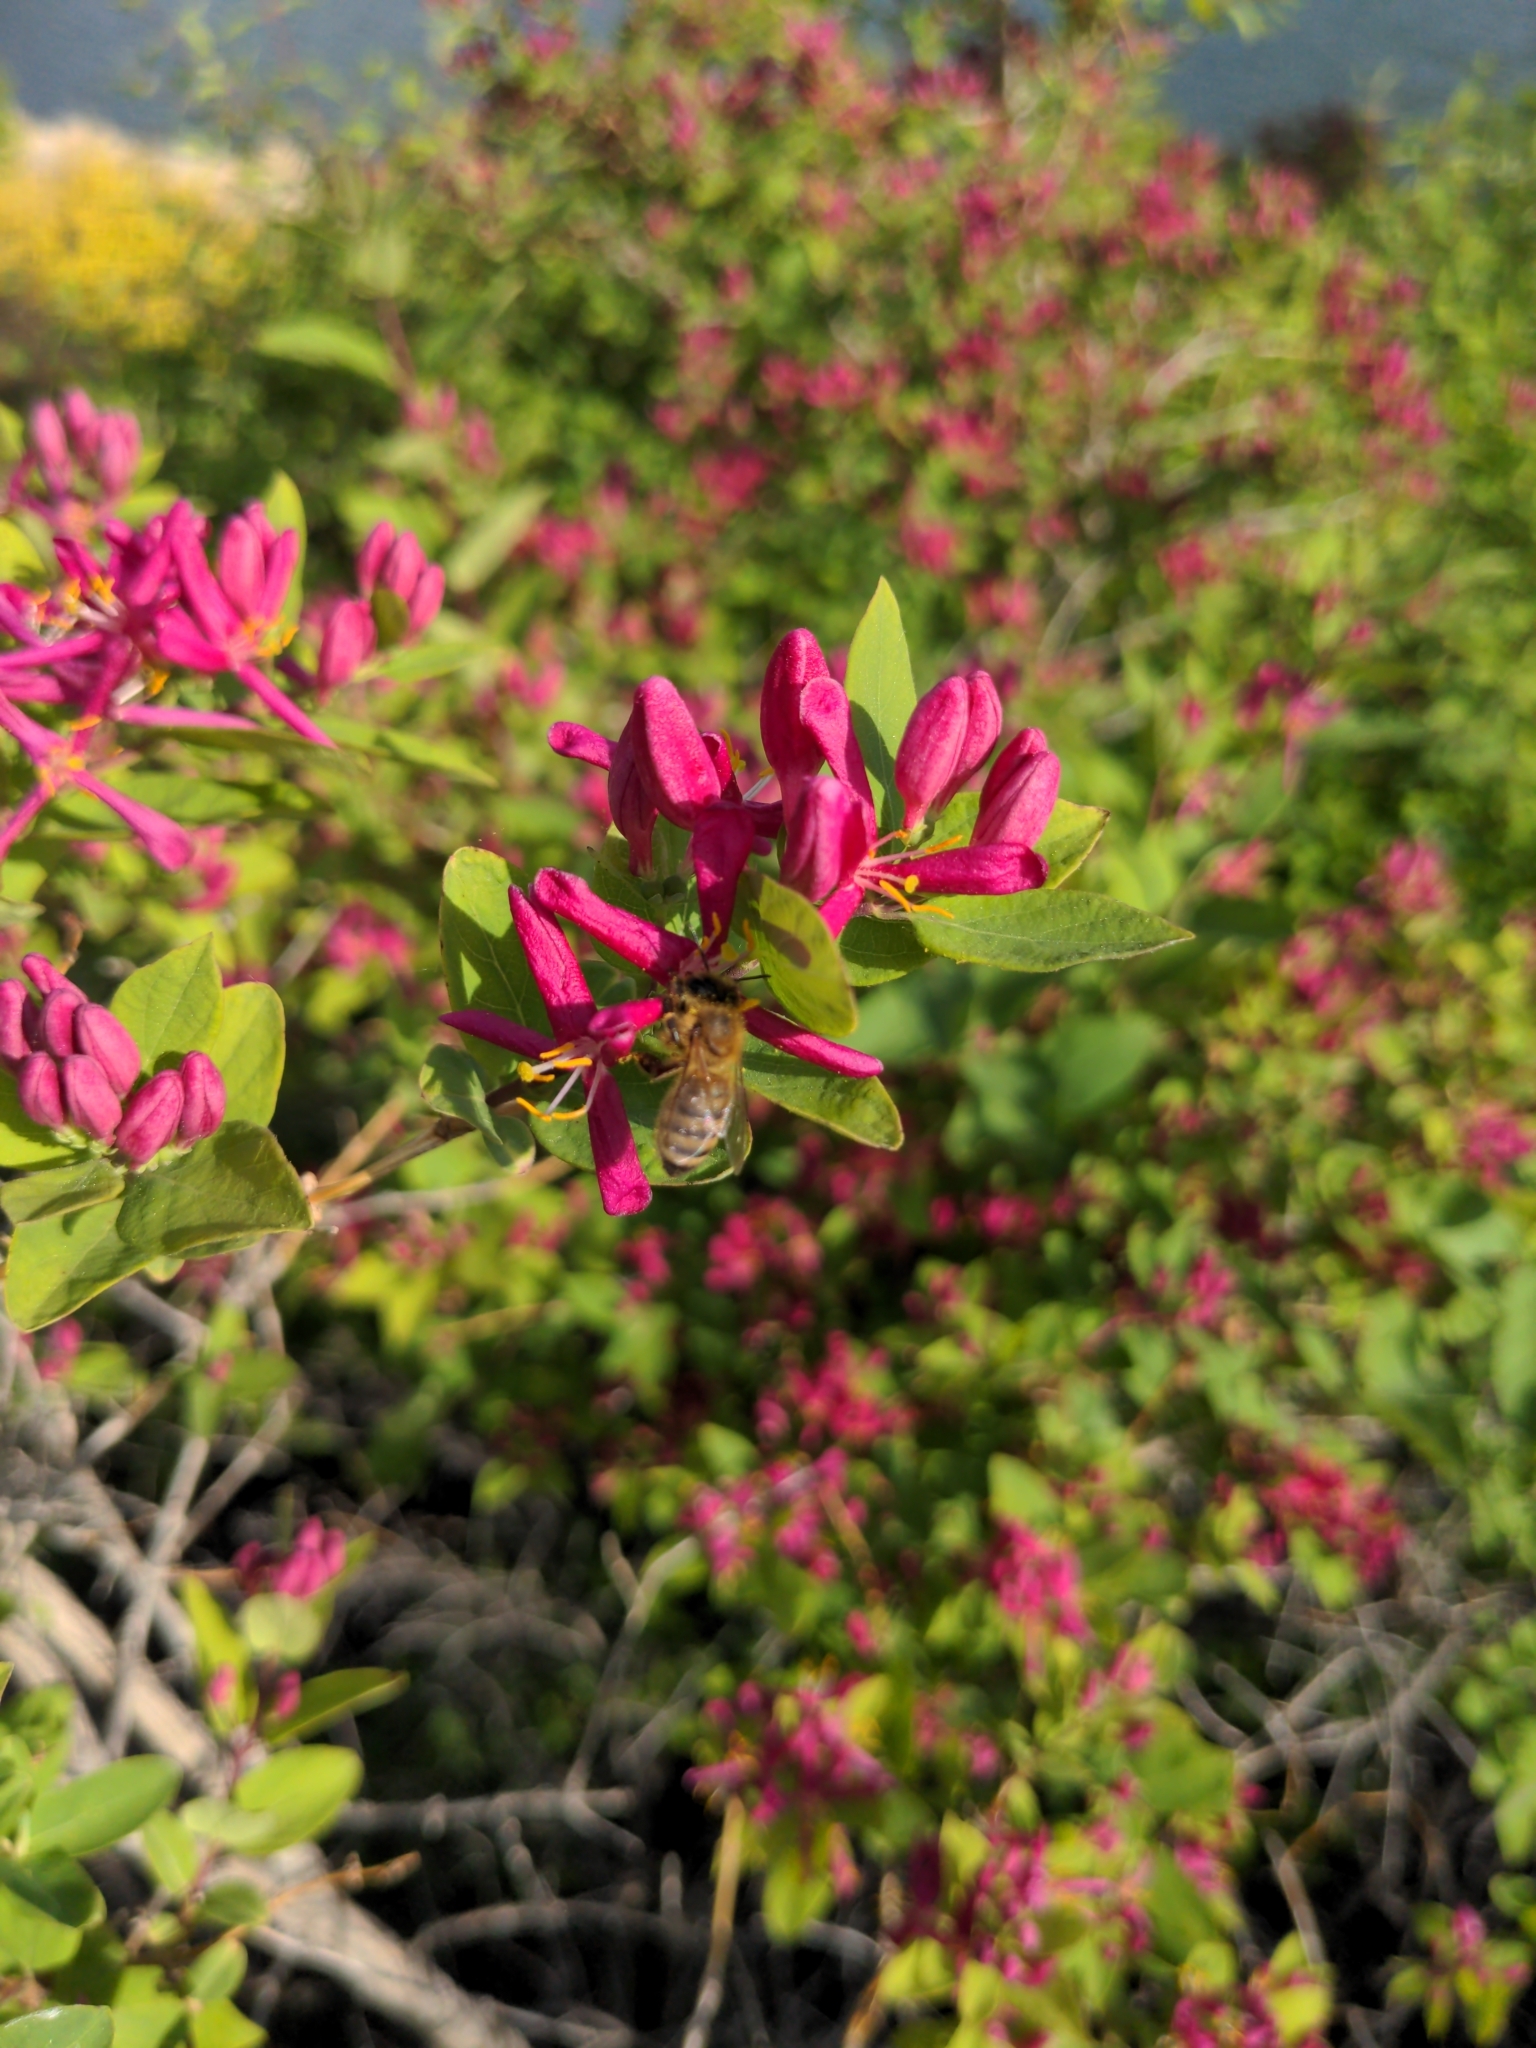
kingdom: Animalia
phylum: Arthropoda
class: Insecta
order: Hymenoptera
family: Apidae
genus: Apis
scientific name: Apis mellifera
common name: Honey bee
